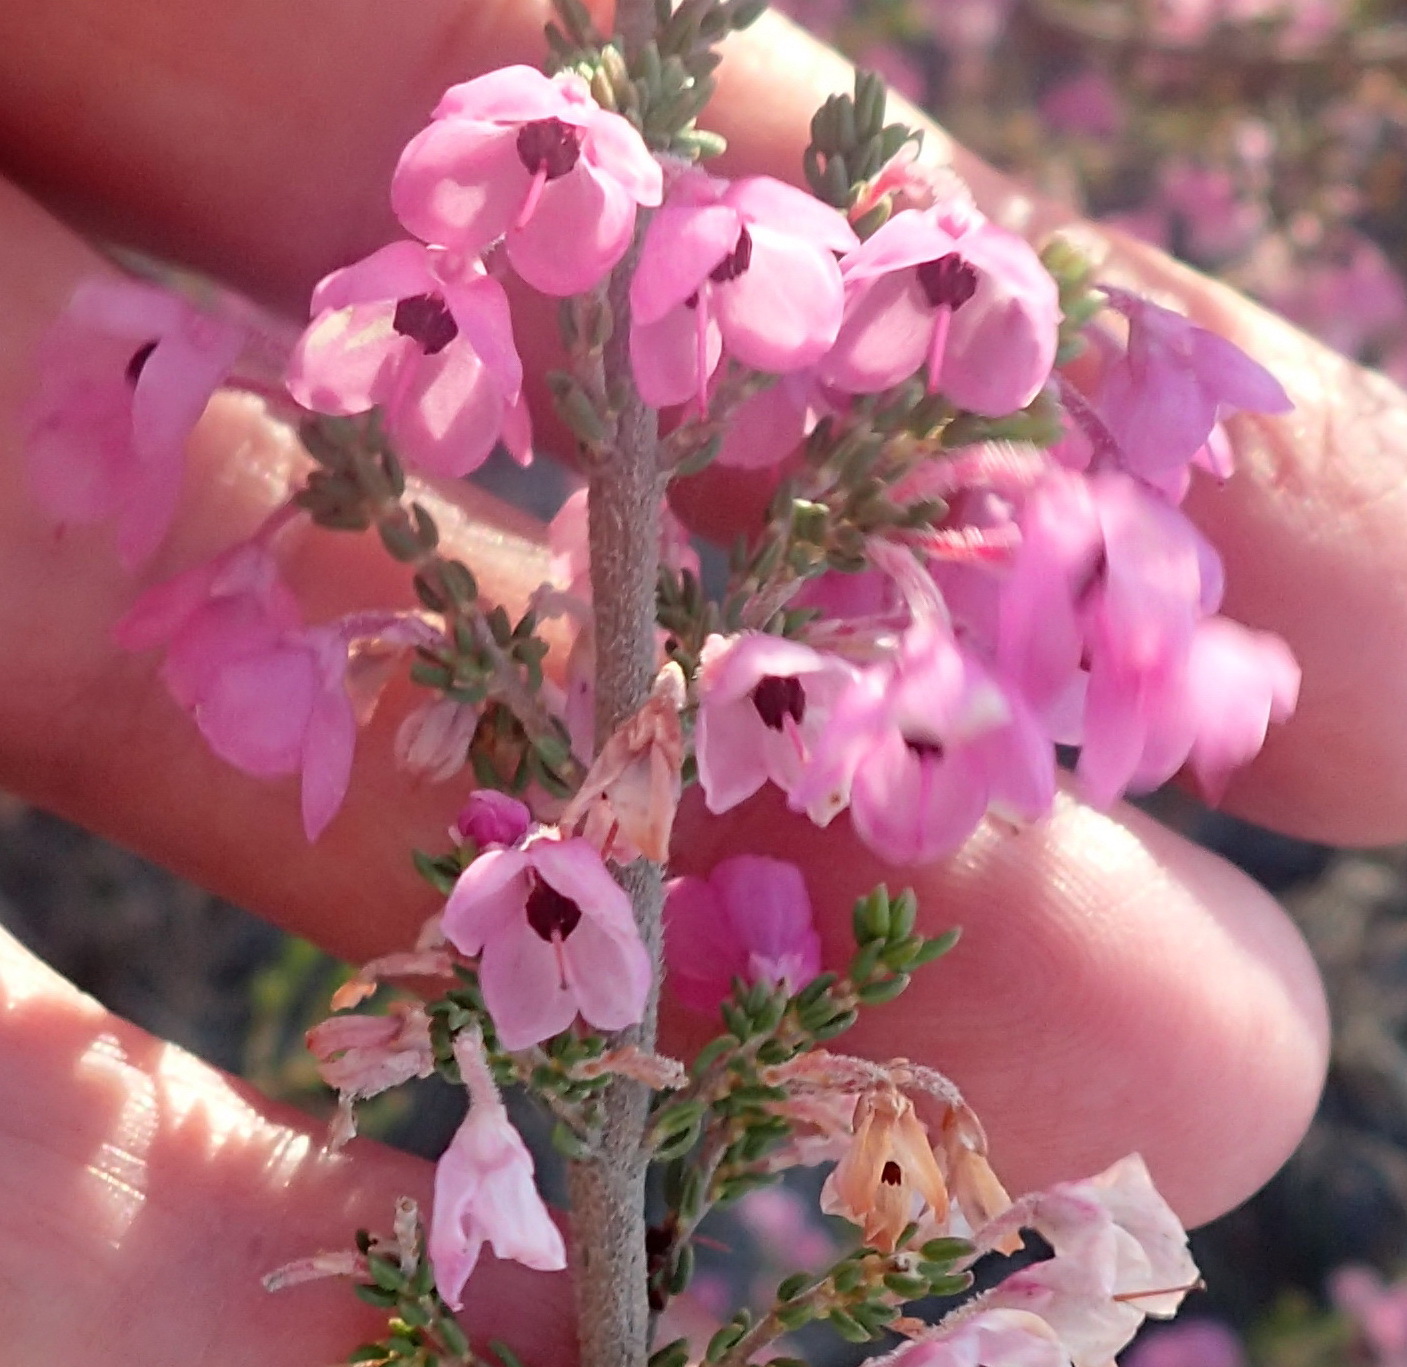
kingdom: Plantae
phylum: Tracheophyta
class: Magnoliopsida
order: Ericales
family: Ericaceae
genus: Erica
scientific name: Erica melanthera
